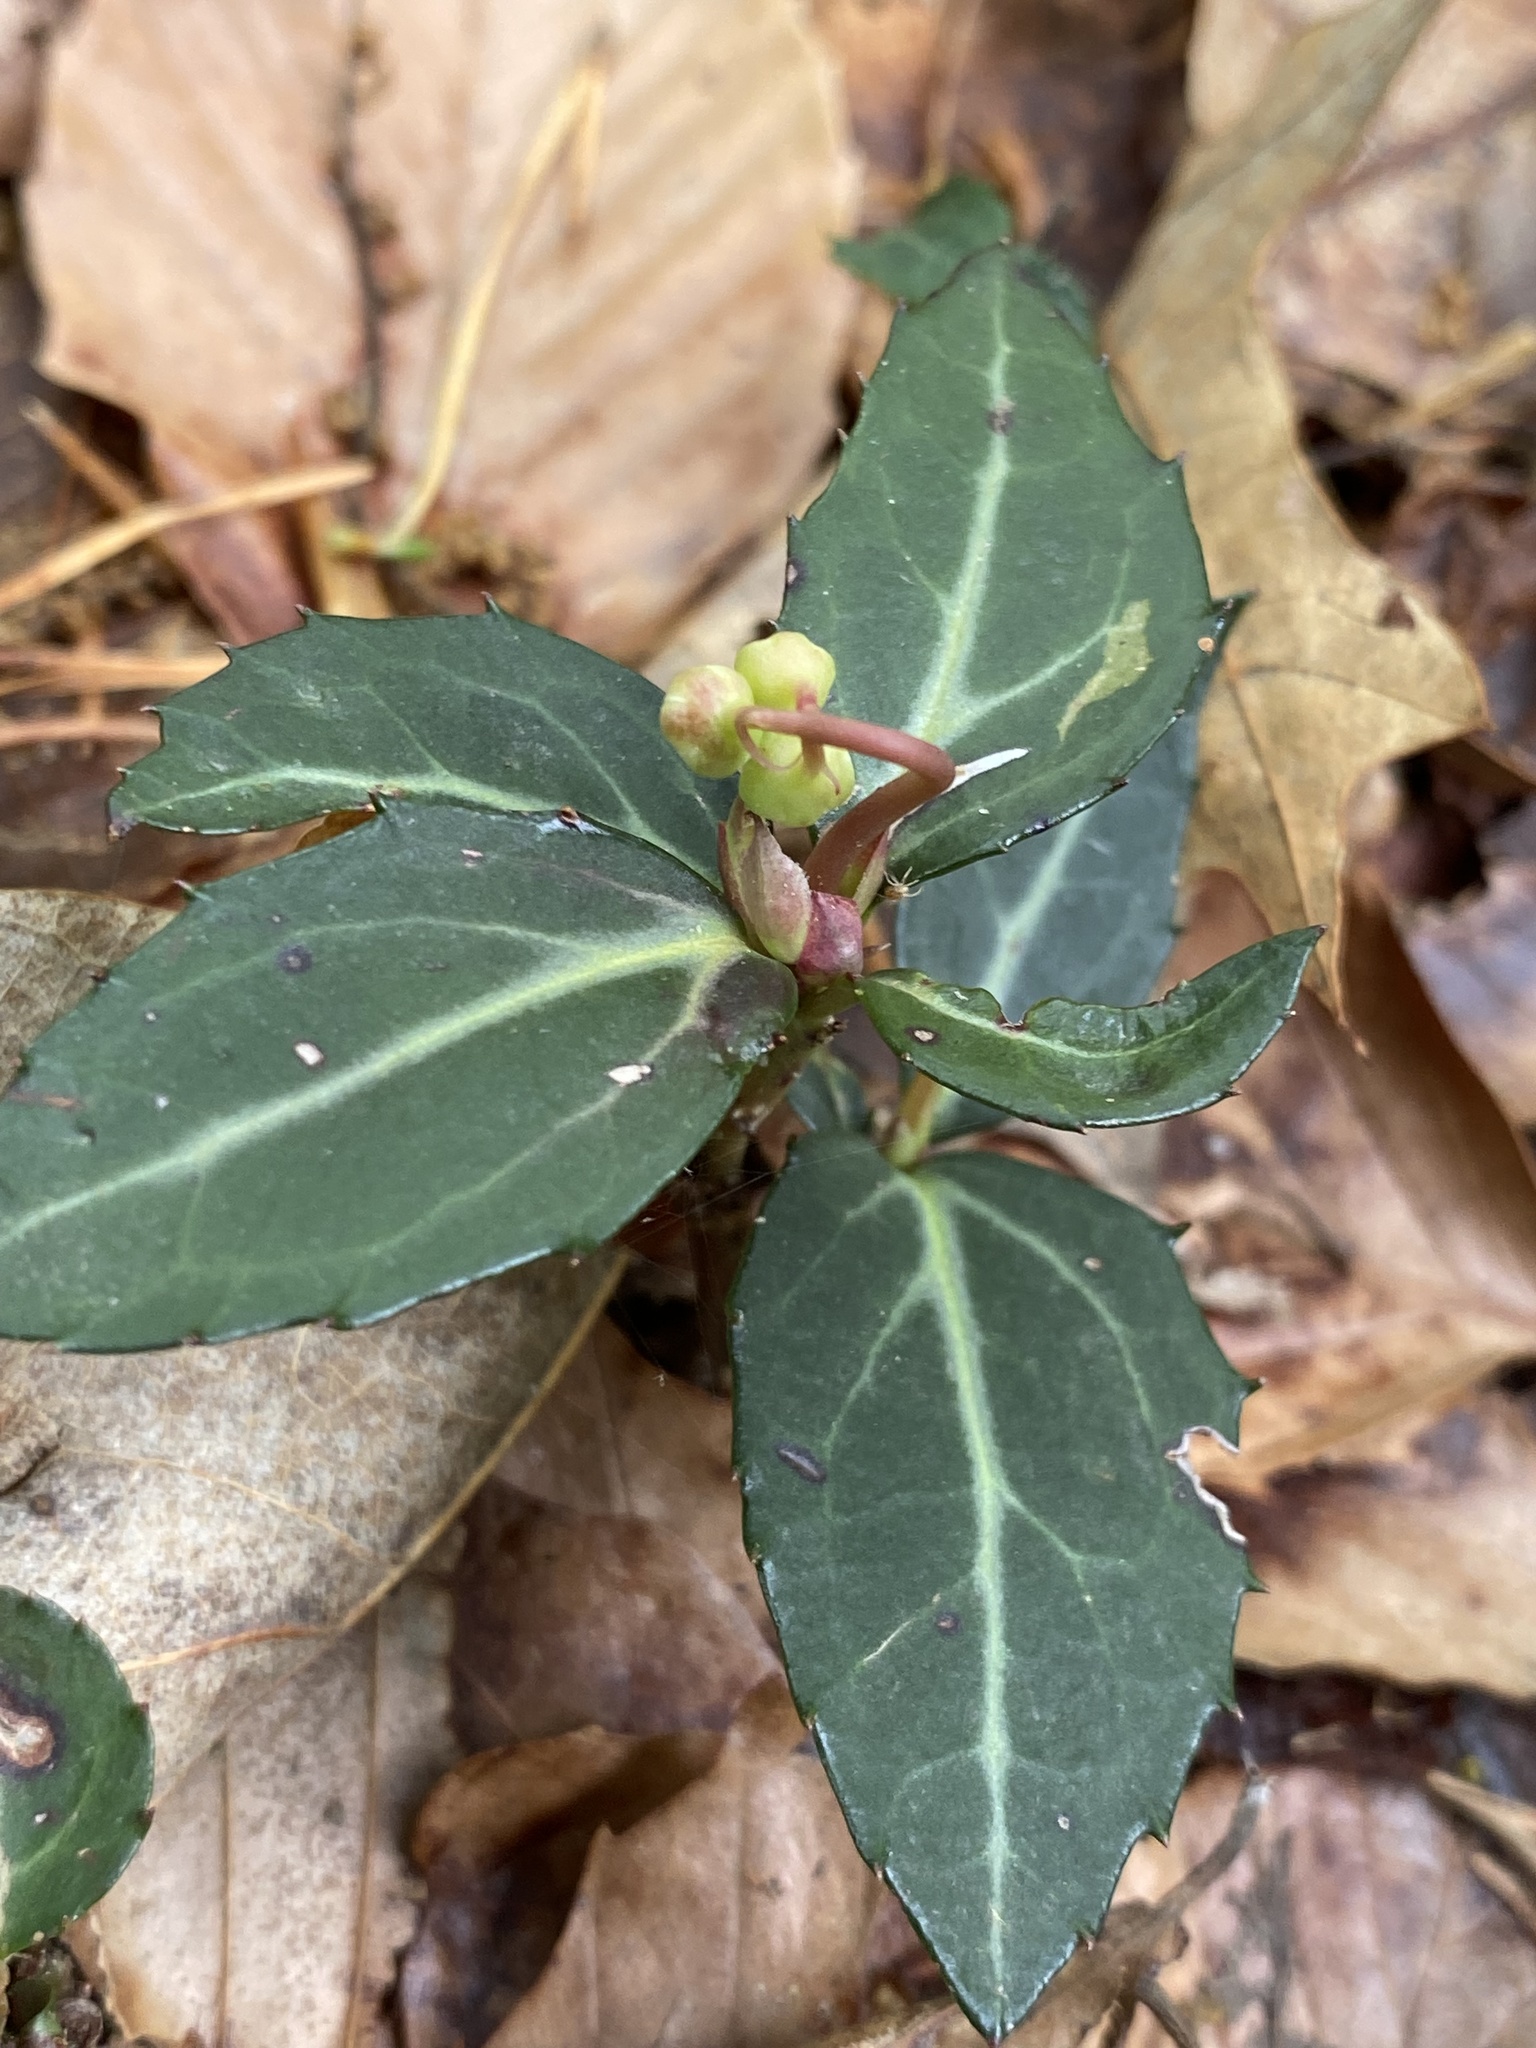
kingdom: Plantae
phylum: Tracheophyta
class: Magnoliopsida
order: Ericales
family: Ericaceae
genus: Chimaphila
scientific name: Chimaphila maculata
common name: Spotted pipsissewa
